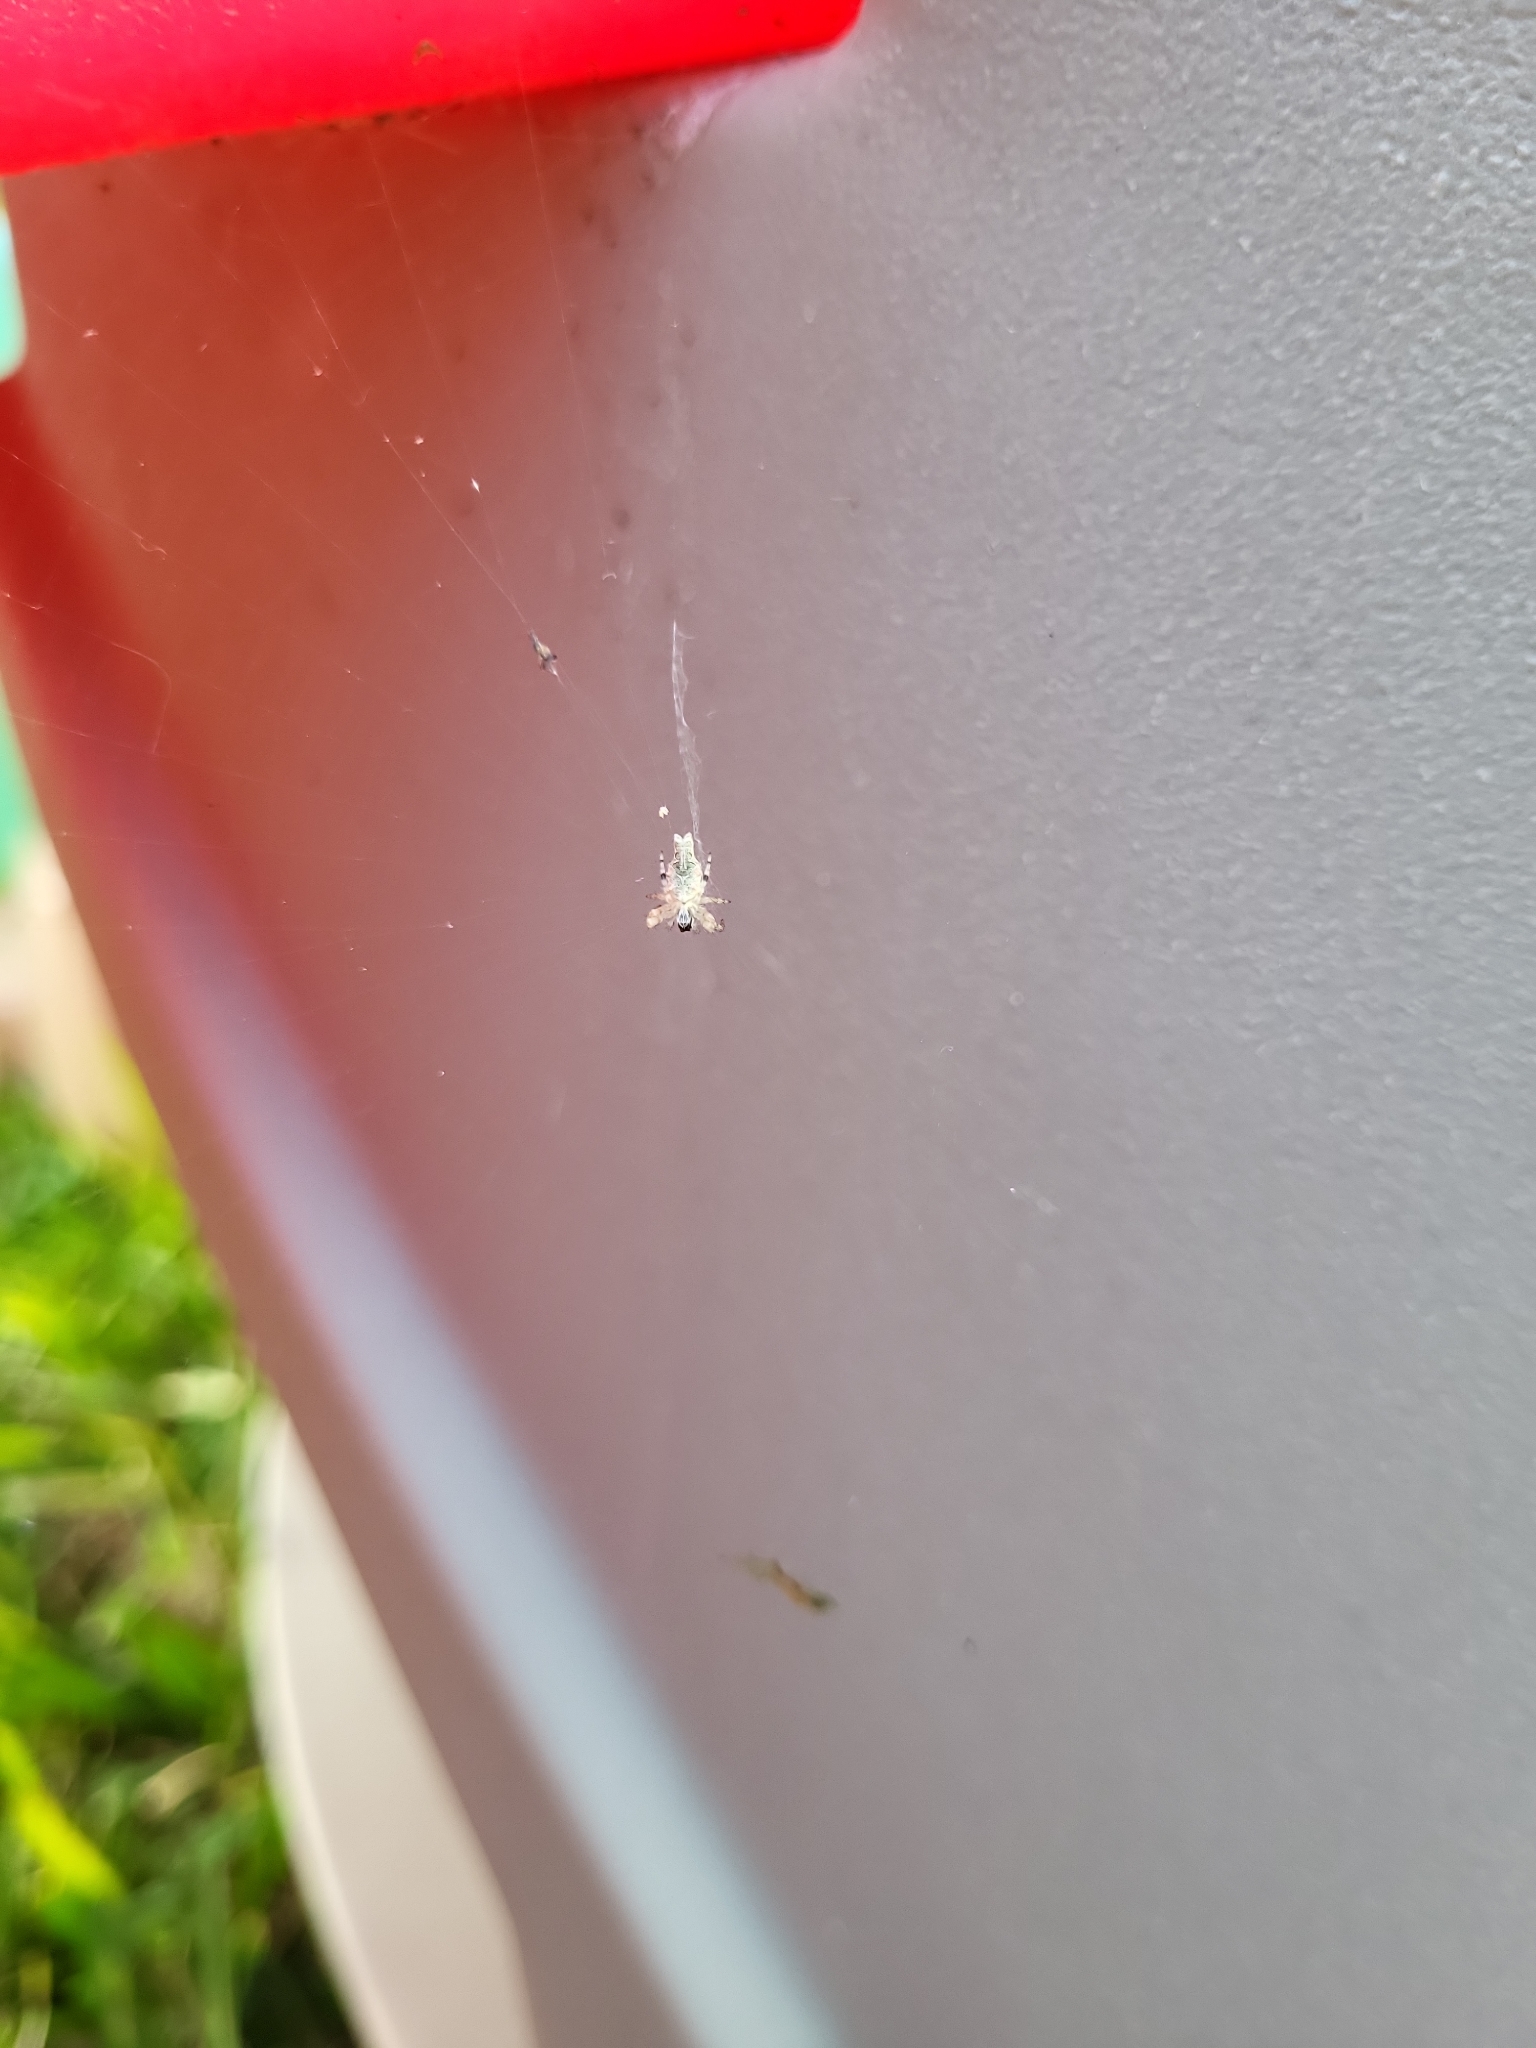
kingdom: Animalia
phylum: Arthropoda
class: Arachnida
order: Araneae
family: Araneidae
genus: Allocyclosa
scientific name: Allocyclosa bifurca
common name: Orb weavers
